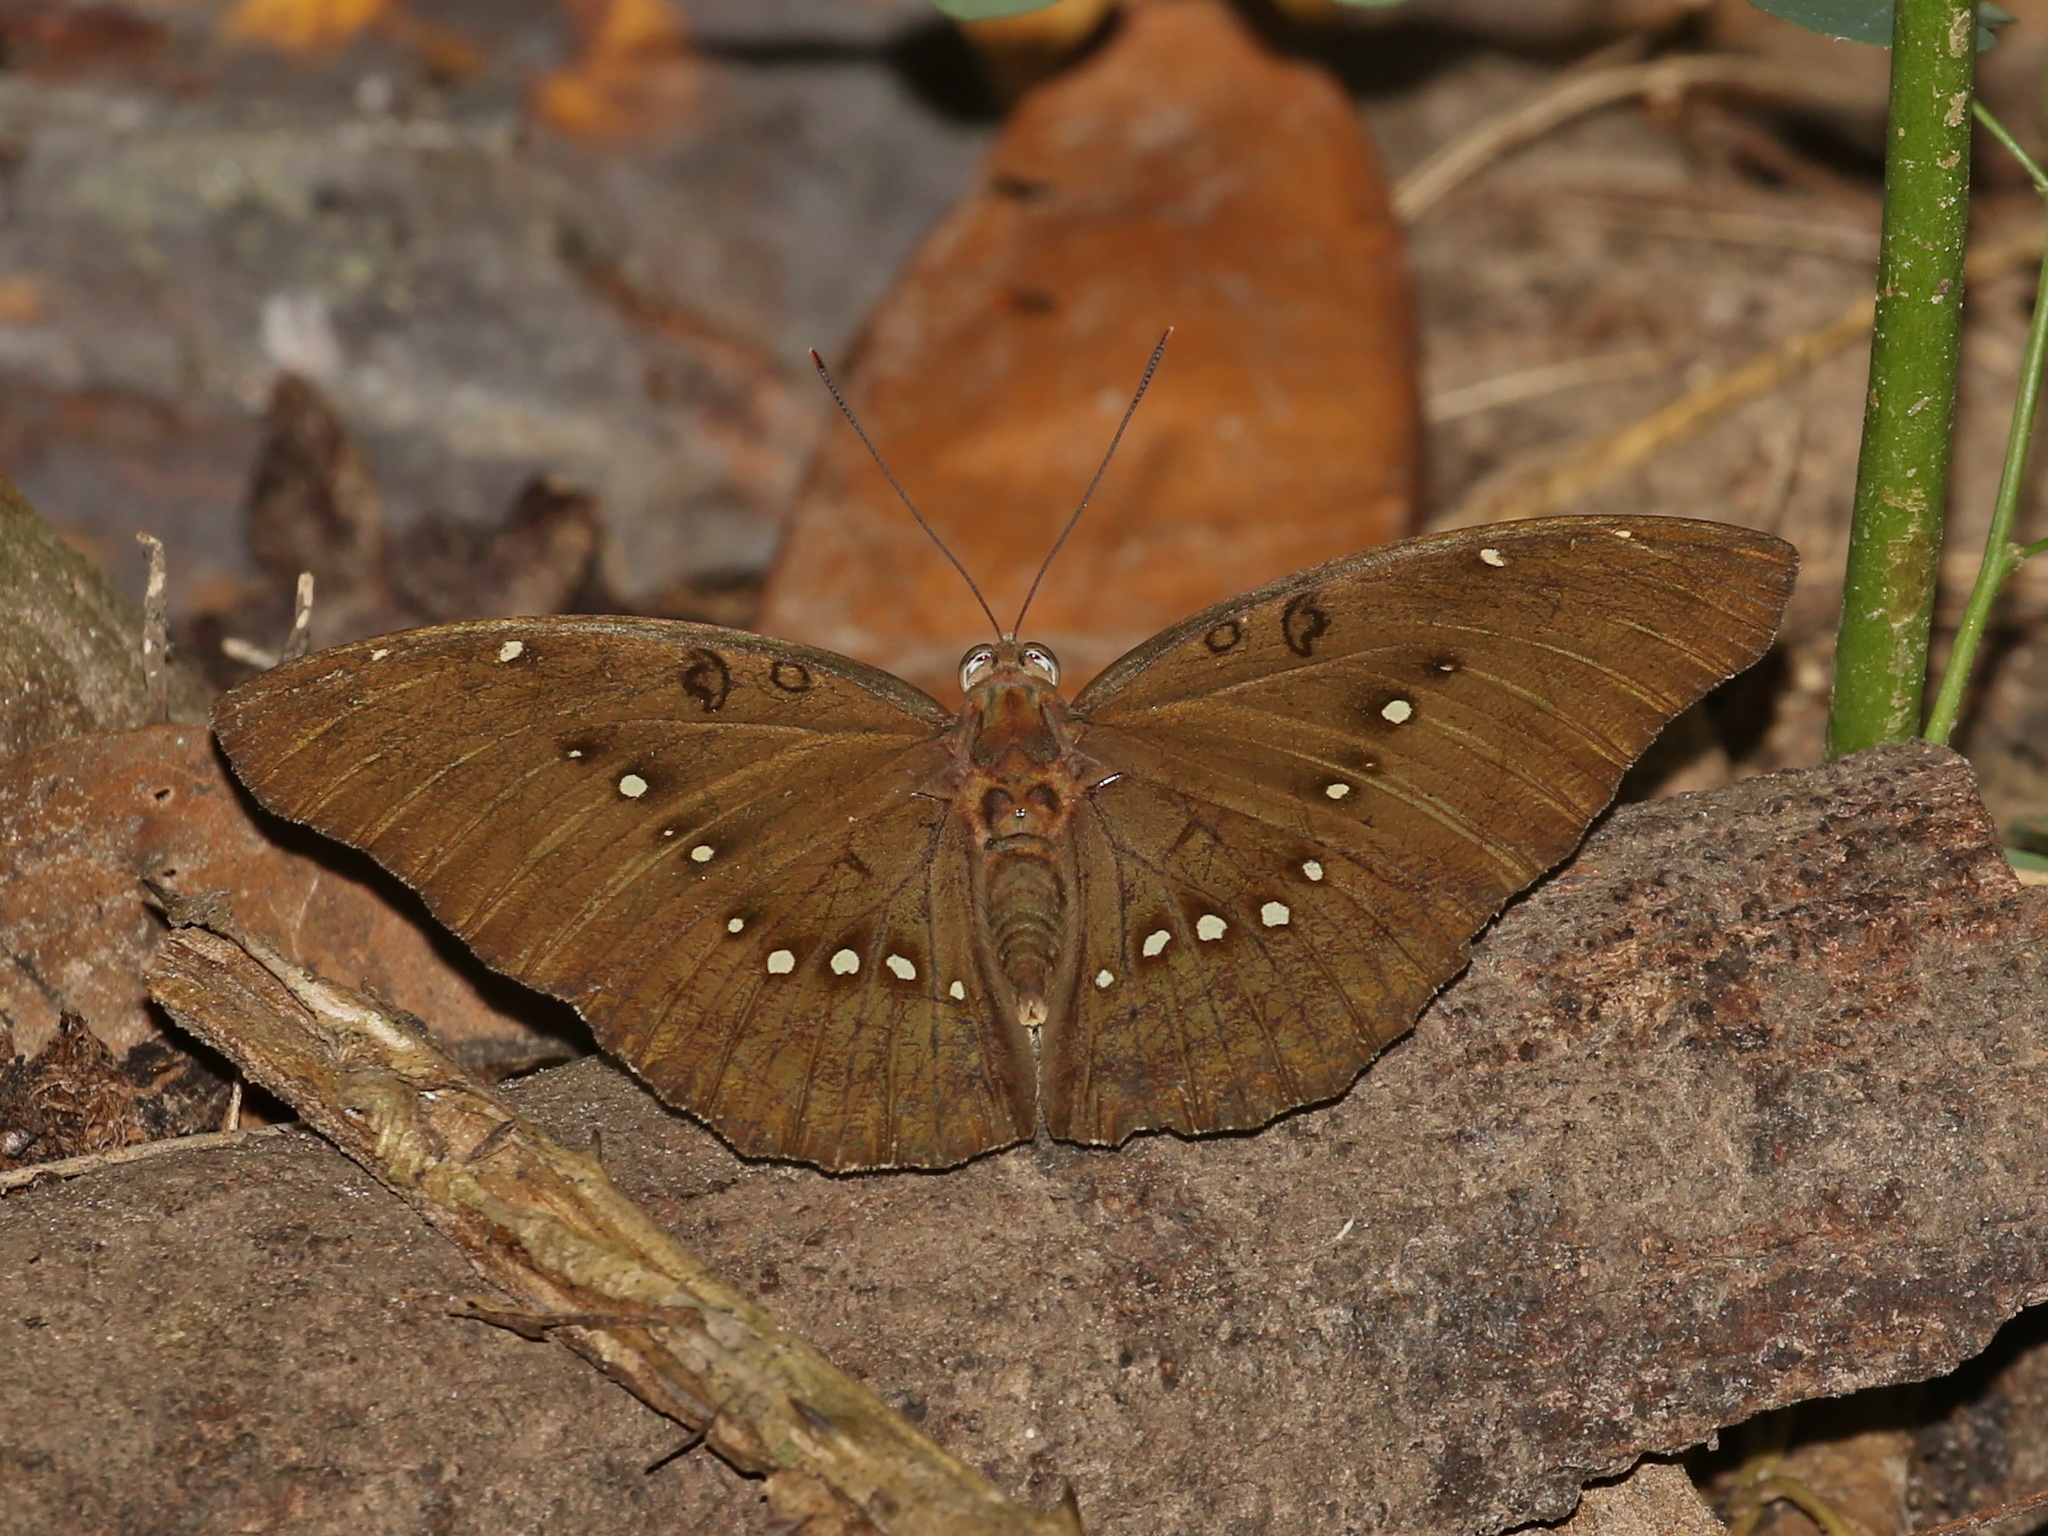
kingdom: Animalia
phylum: Arthropoda
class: Insecta
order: Lepidoptera
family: Nymphalidae
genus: Euthalia
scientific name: Euthalia Bassarona dunya
